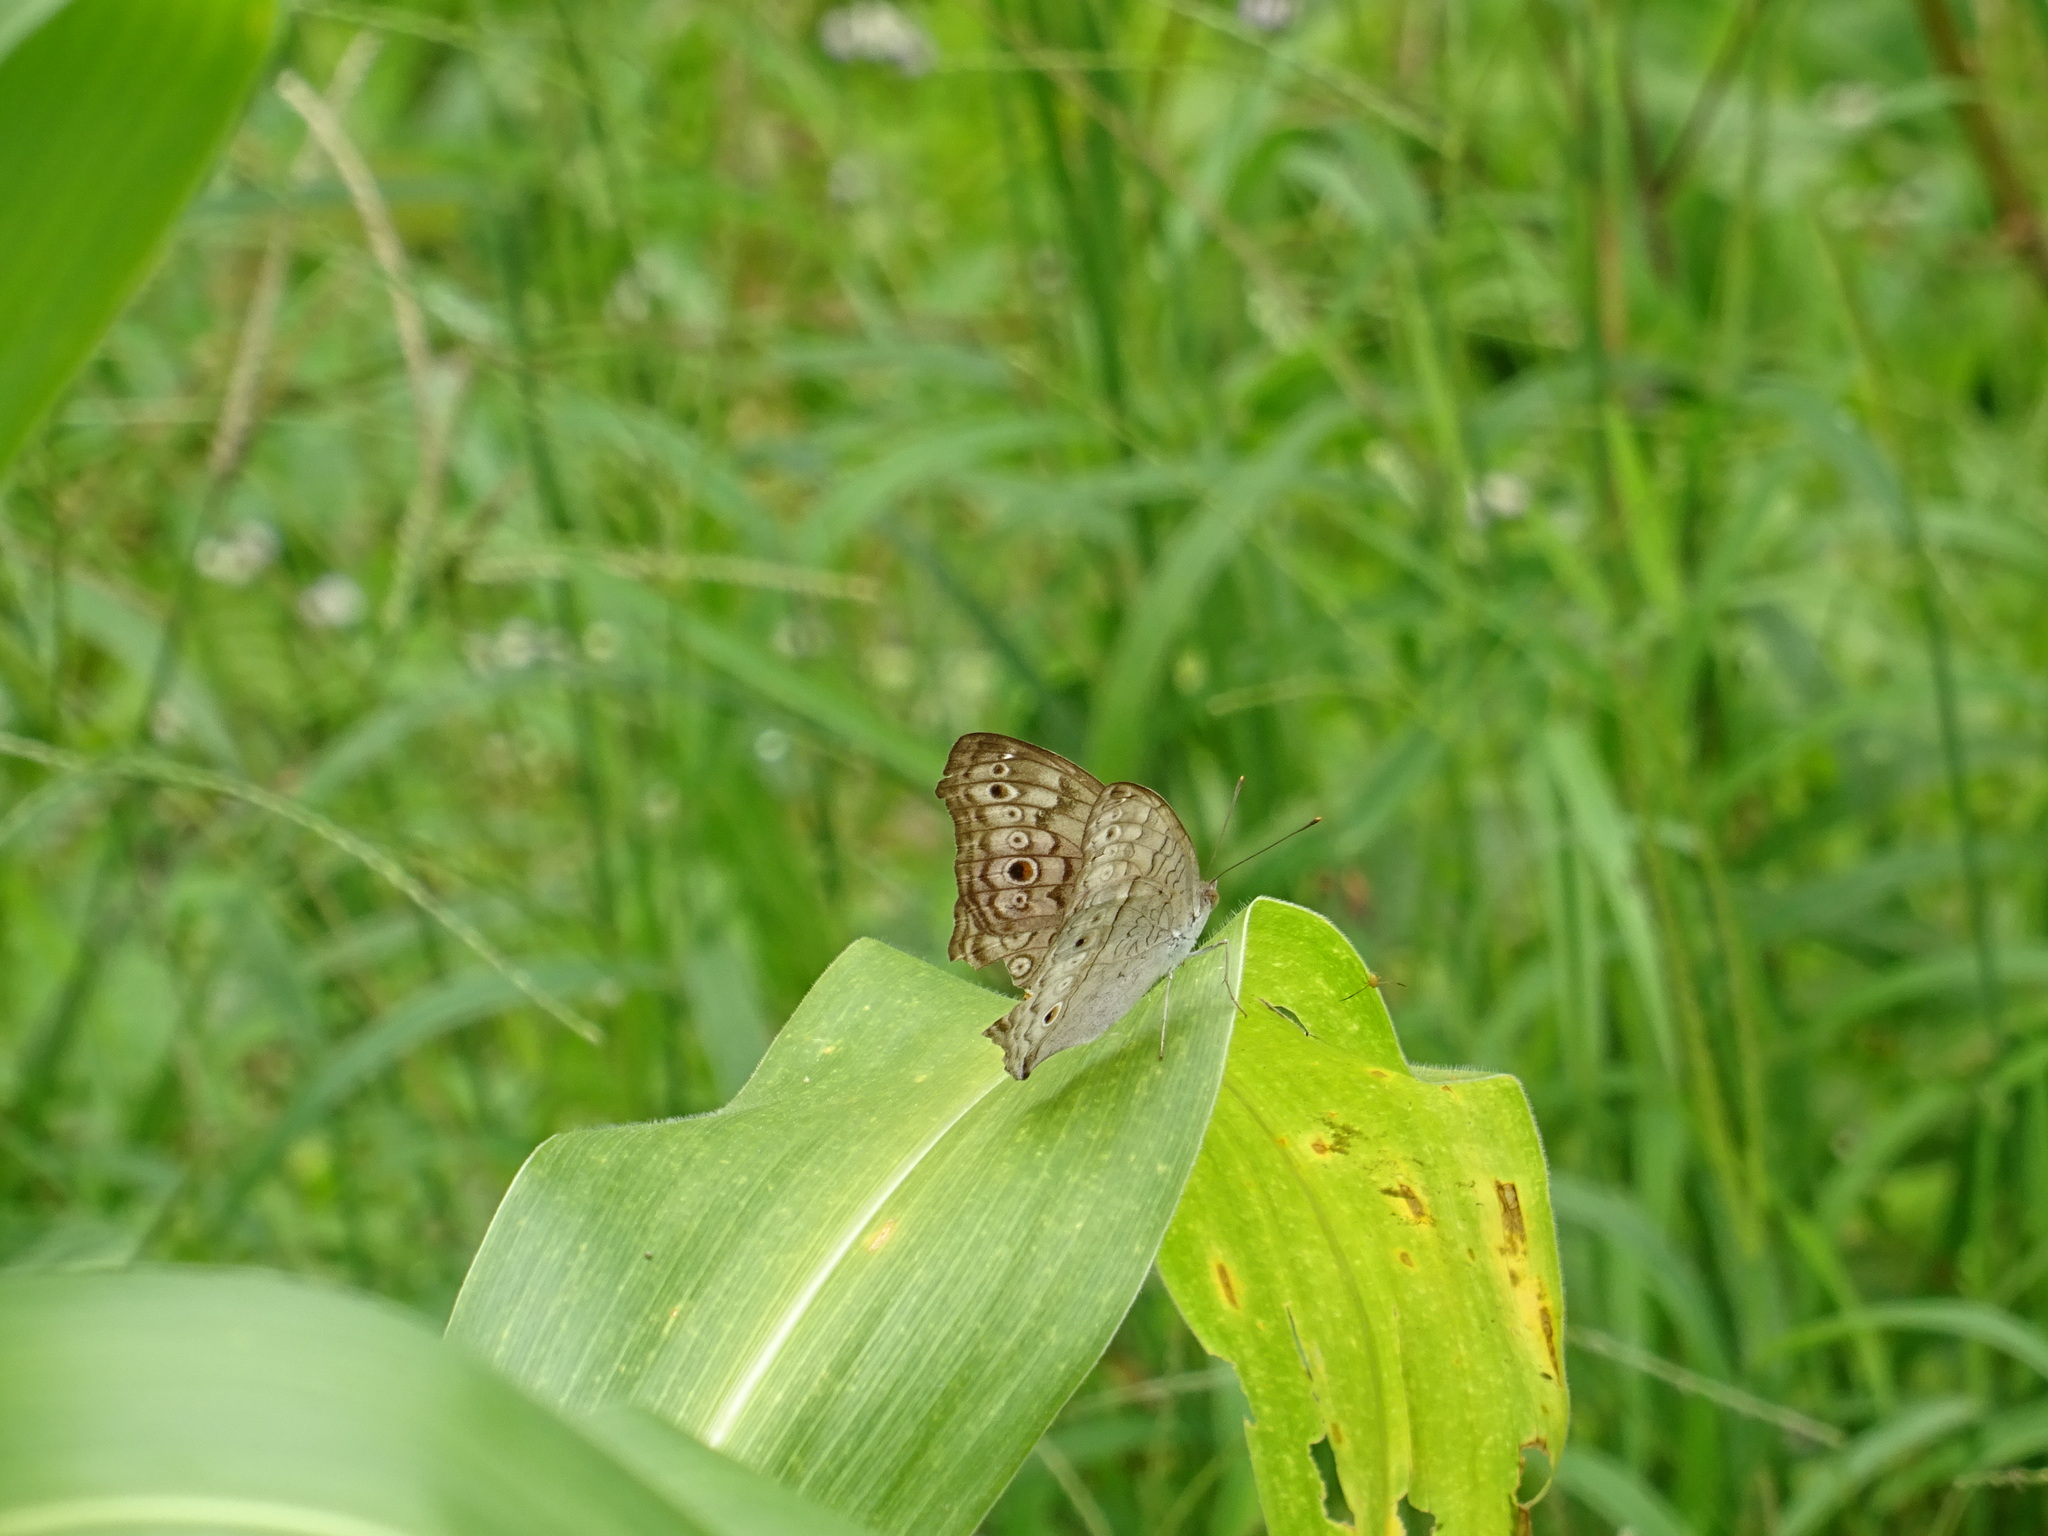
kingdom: Animalia
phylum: Arthropoda
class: Insecta
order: Lepidoptera
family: Nymphalidae
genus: Junonia
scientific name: Junonia atlites
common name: Grey pansy
